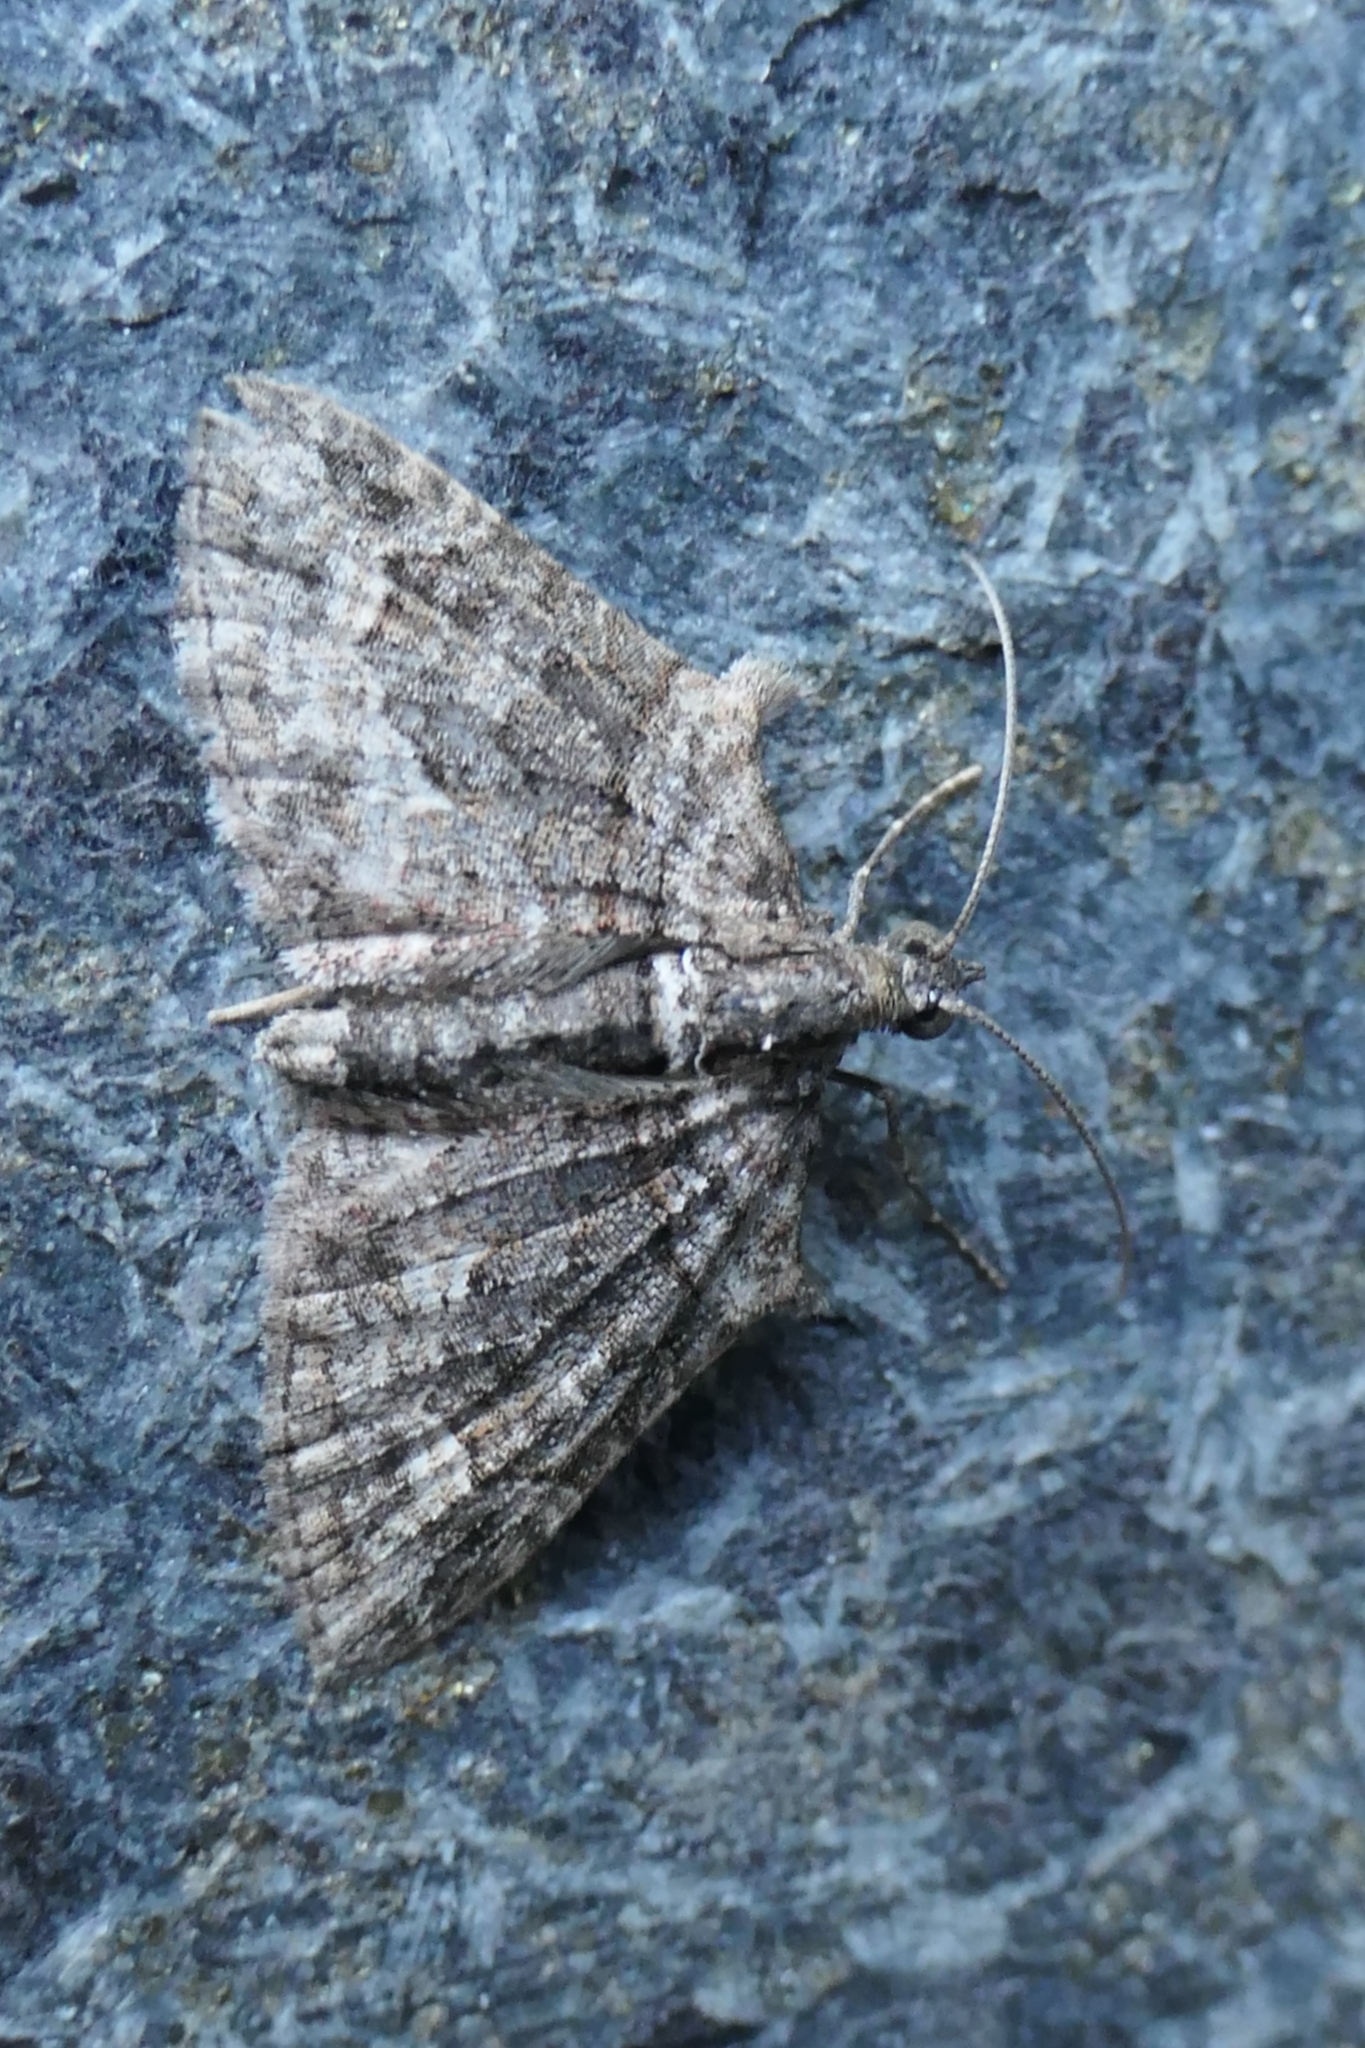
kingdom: Animalia
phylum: Arthropoda
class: Insecta
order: Lepidoptera
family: Geometridae
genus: Phrissogonus
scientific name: Phrissogonus laticostata
